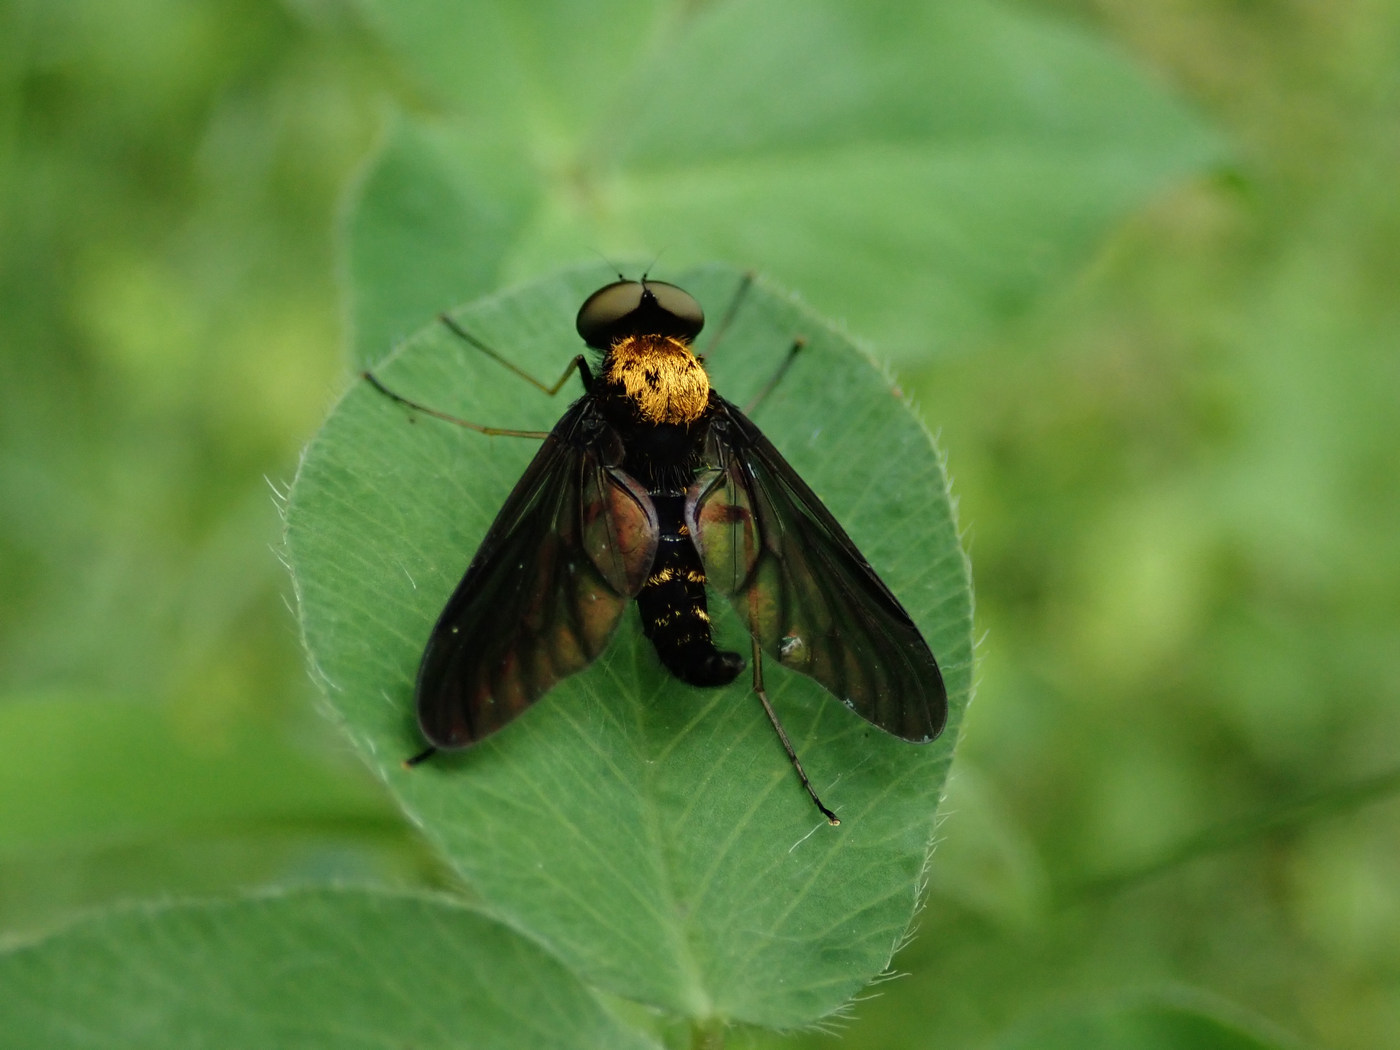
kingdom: Animalia
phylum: Arthropoda
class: Insecta
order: Diptera
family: Rhagionidae
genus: Chrysopilus
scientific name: Chrysopilus thoracicus
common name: Golden-backed snipe fly
